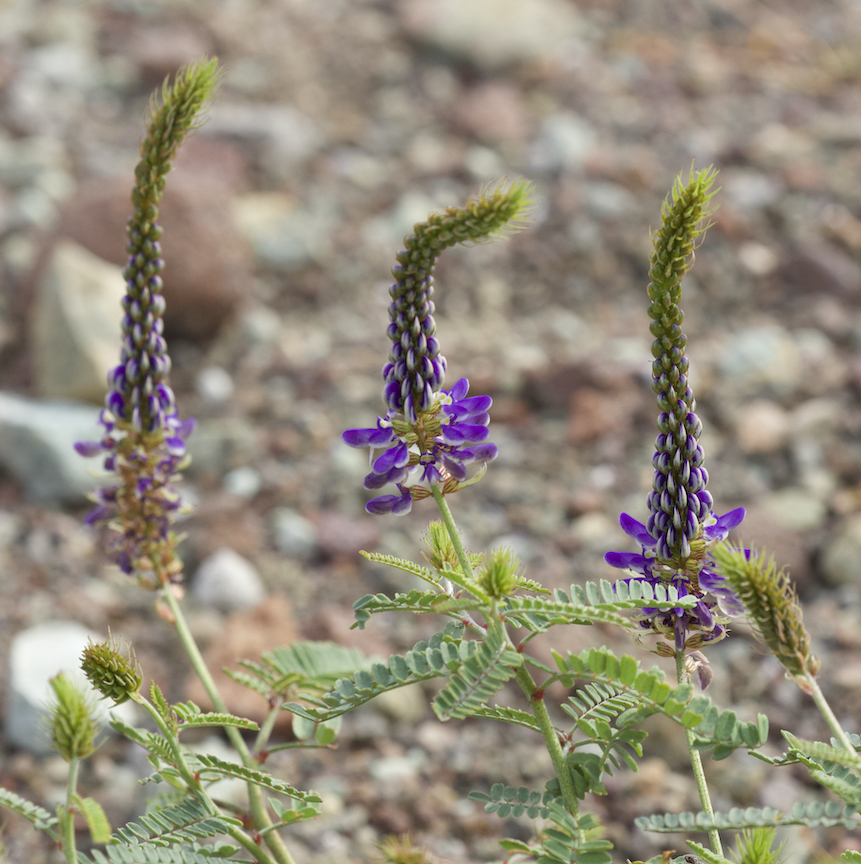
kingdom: Plantae
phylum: Tracheophyta
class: Magnoliopsida
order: Fabales
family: Fabaceae
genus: Marina
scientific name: Marina oculata
